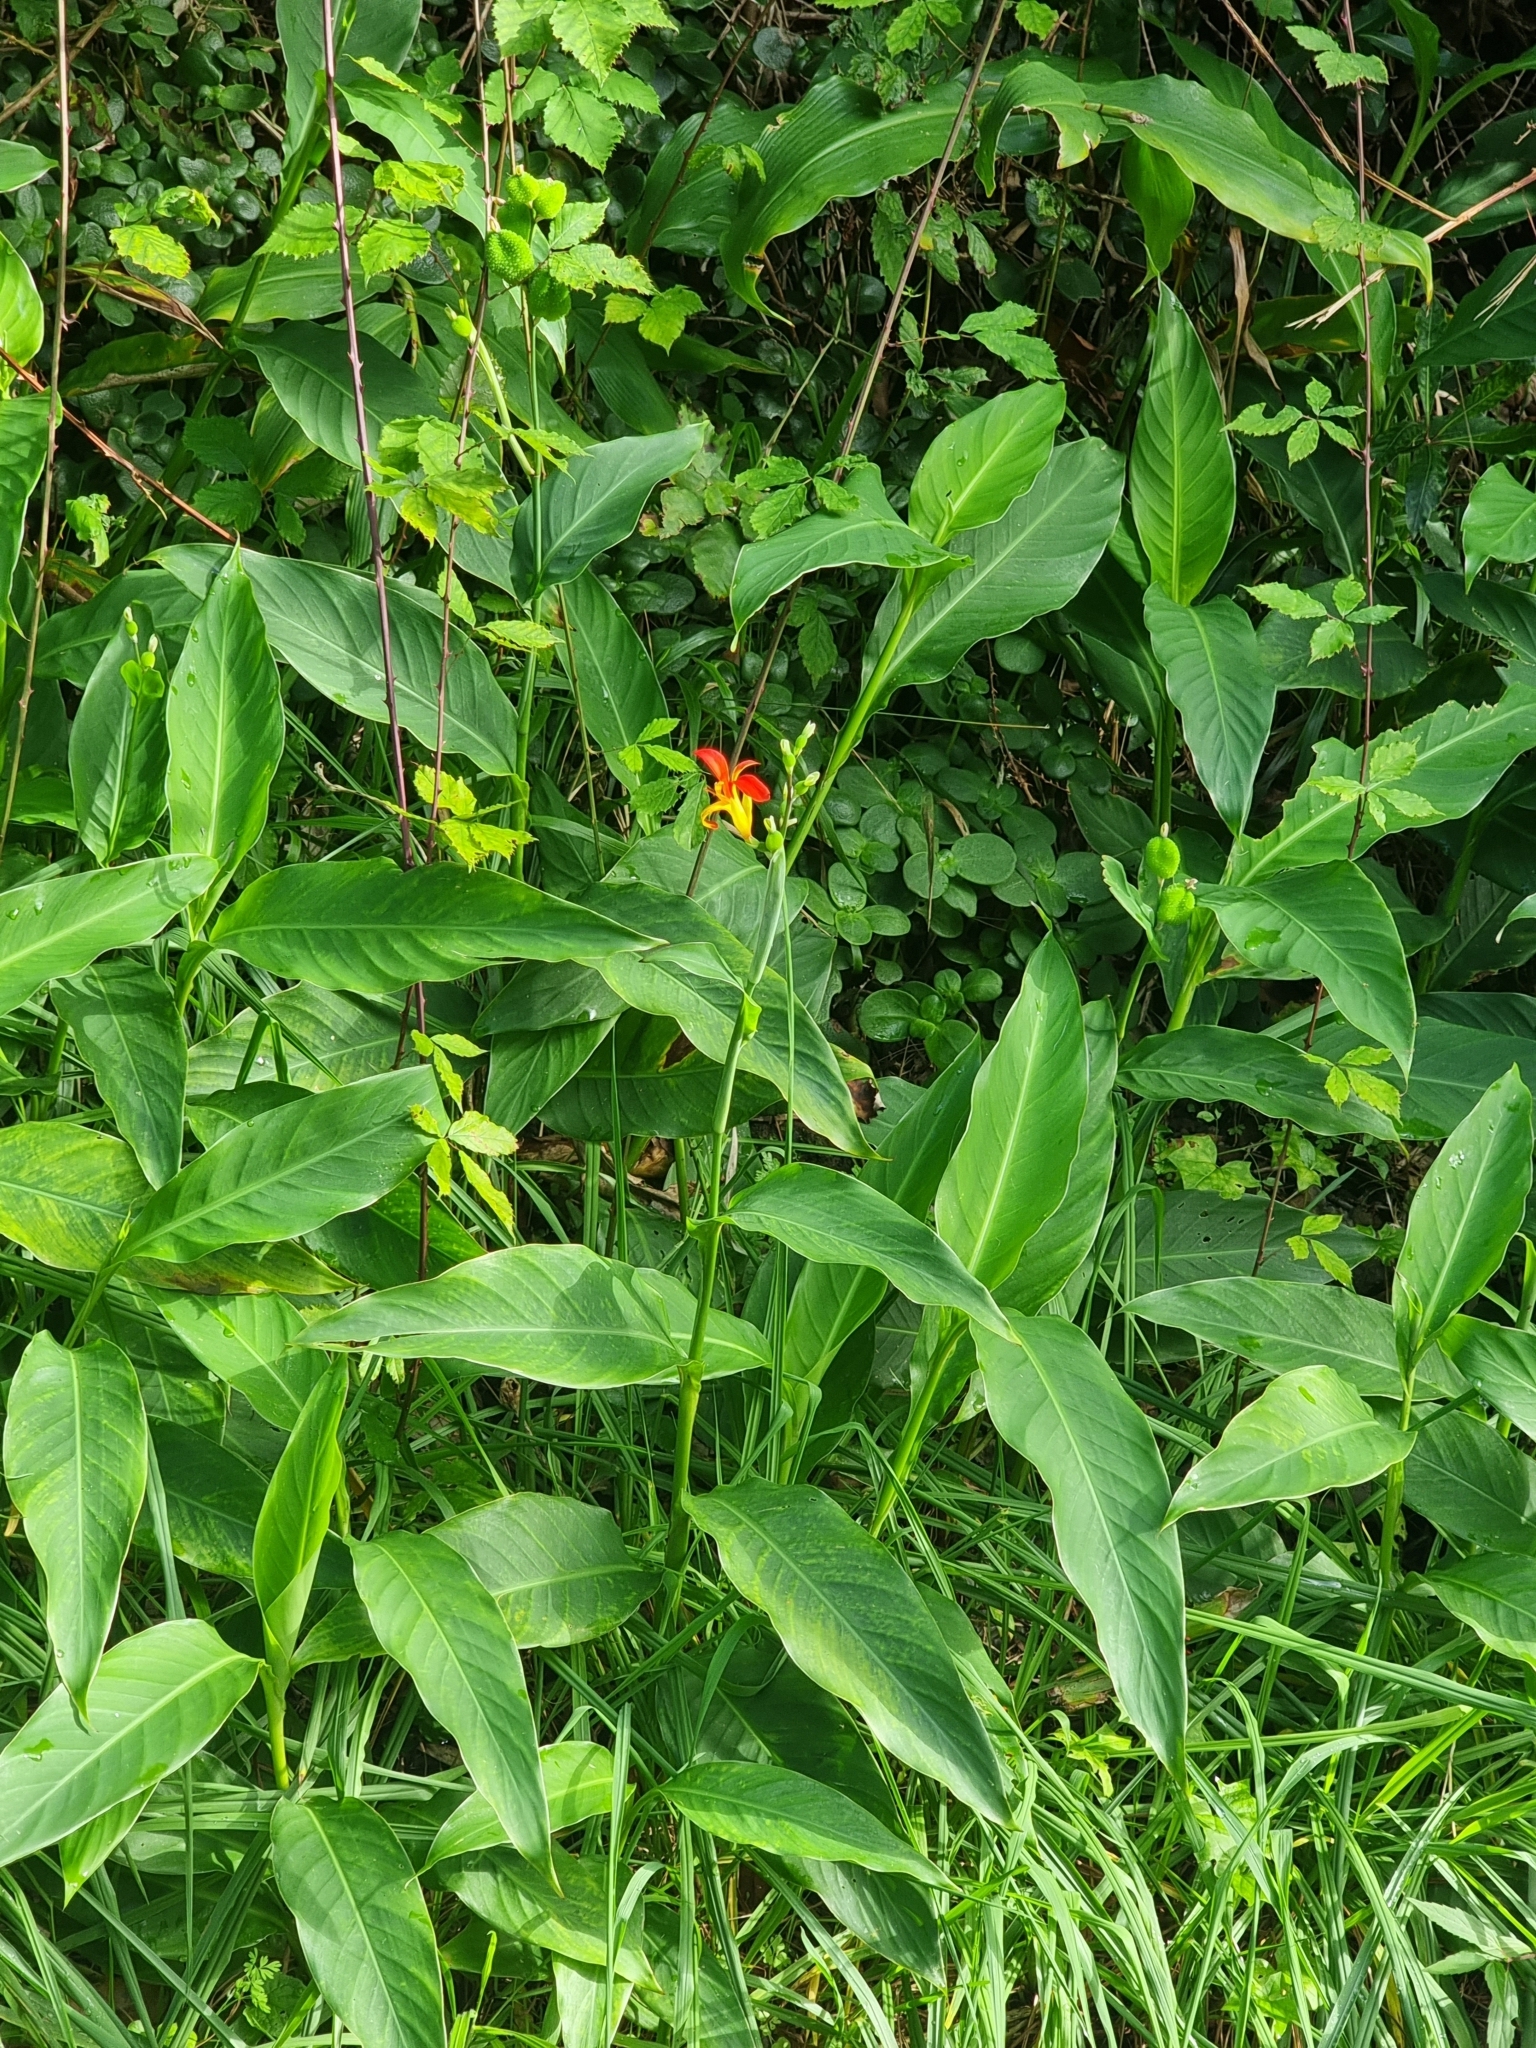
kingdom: Plantae
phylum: Tracheophyta
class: Liliopsida
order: Zingiberales
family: Cannaceae
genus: Canna
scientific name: Canna indica
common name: Indian shot
